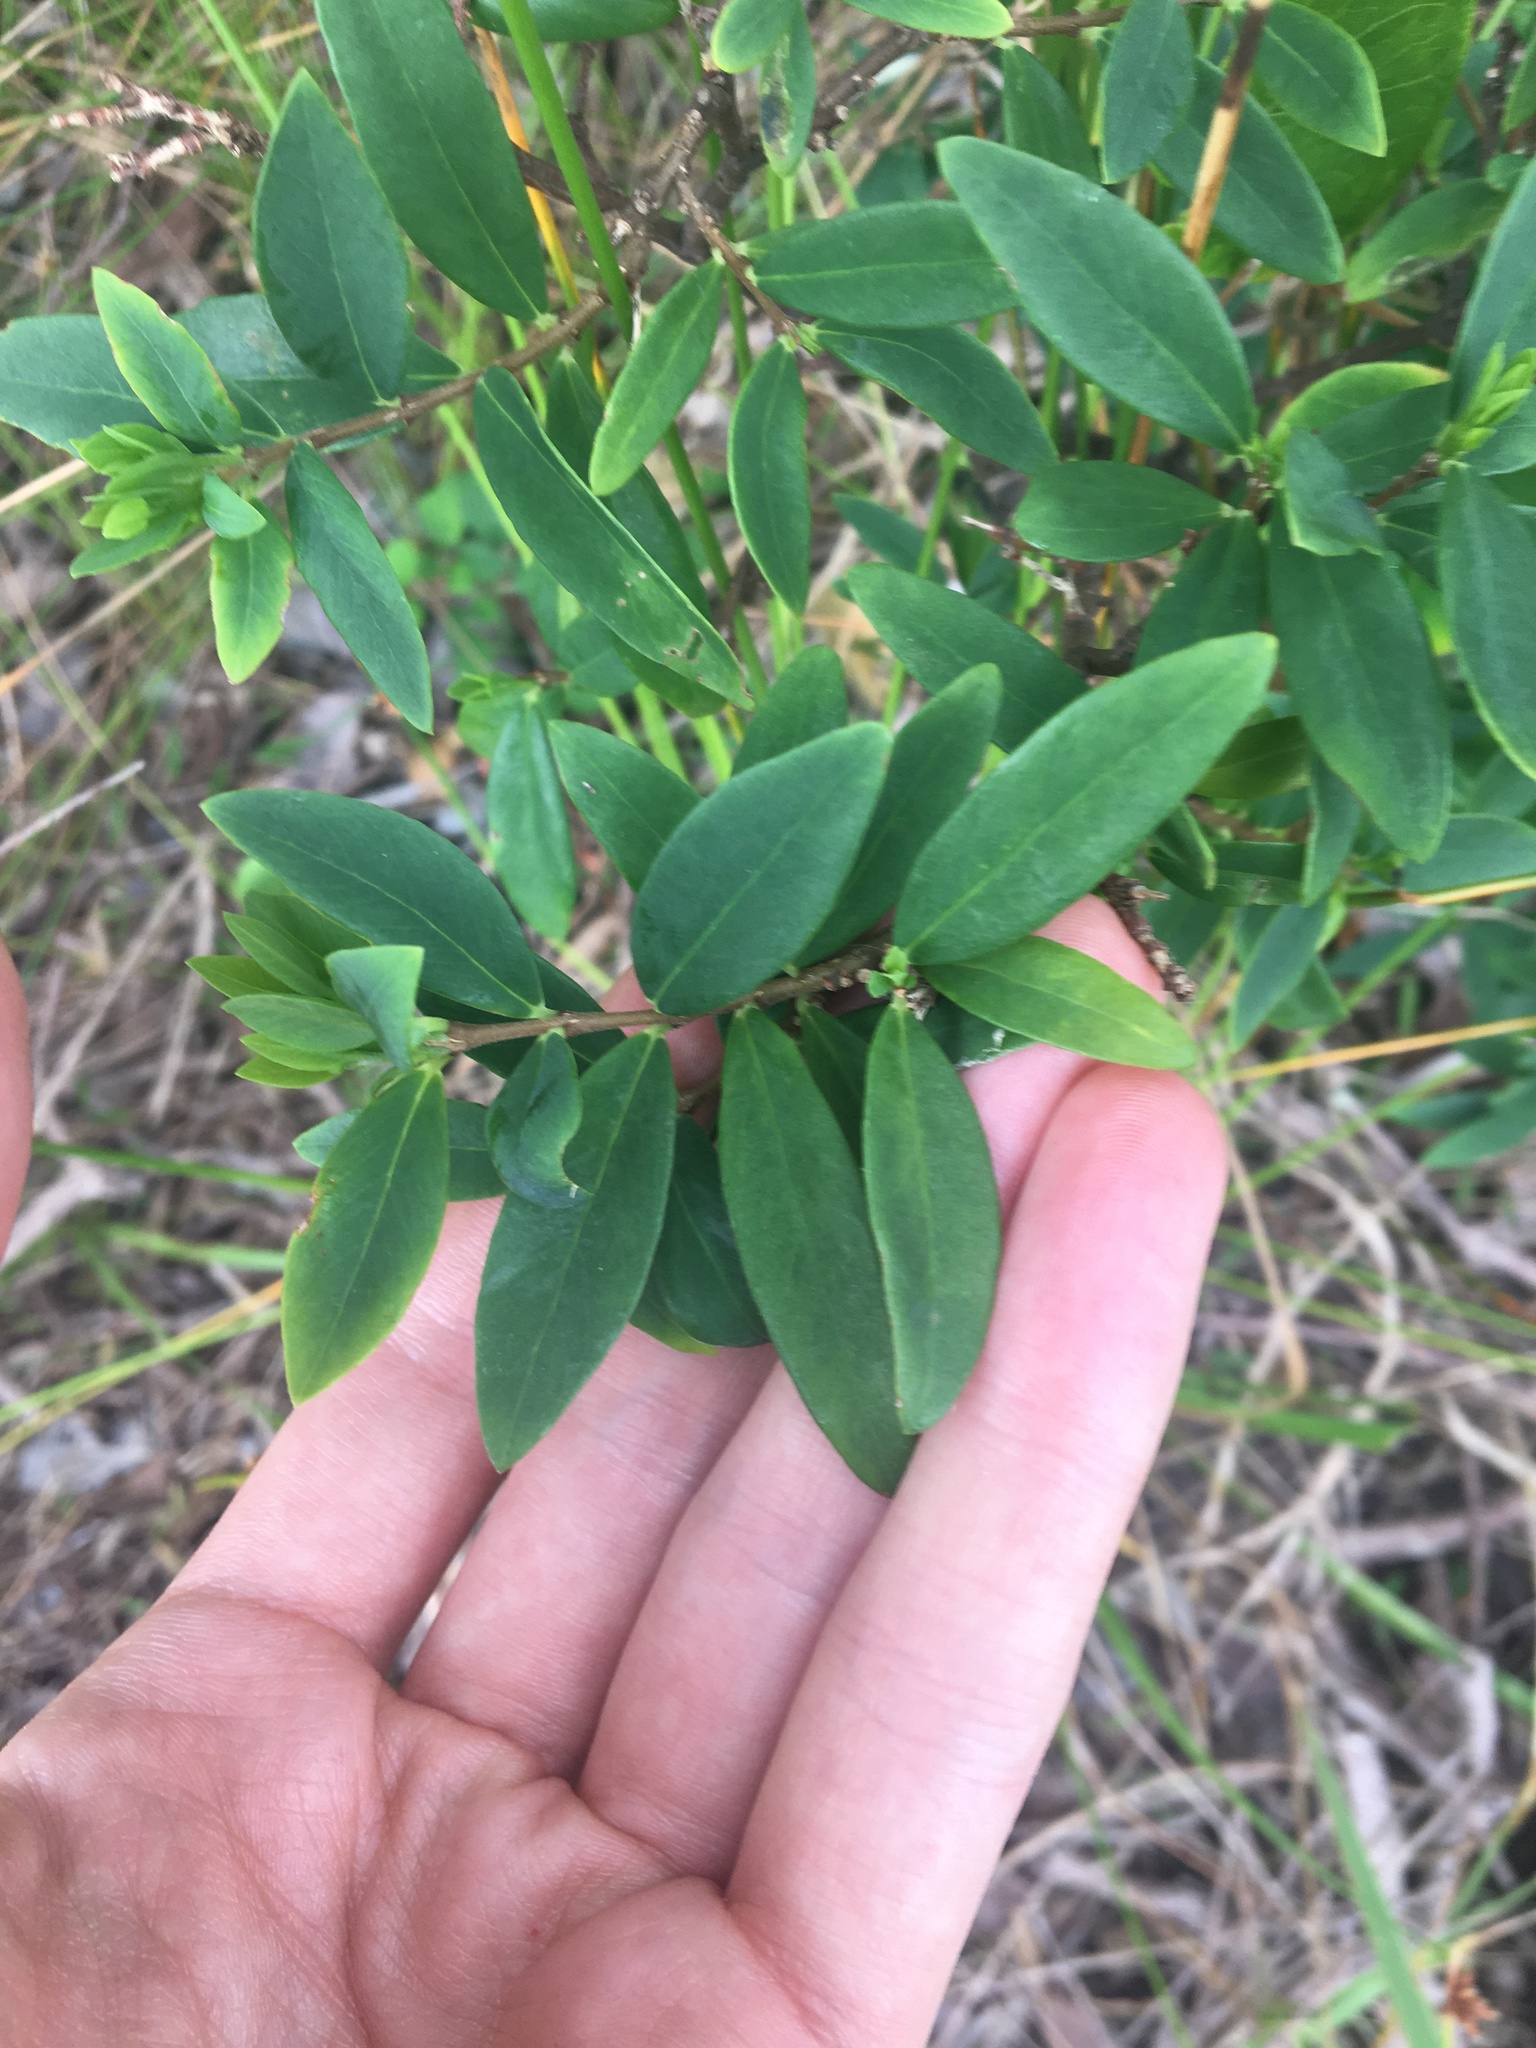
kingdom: Plantae
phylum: Tracheophyta
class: Magnoliopsida
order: Malvales
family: Thymelaeaceae
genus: Wikstroemia
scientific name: Wikstroemia indica
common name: Tiebush
